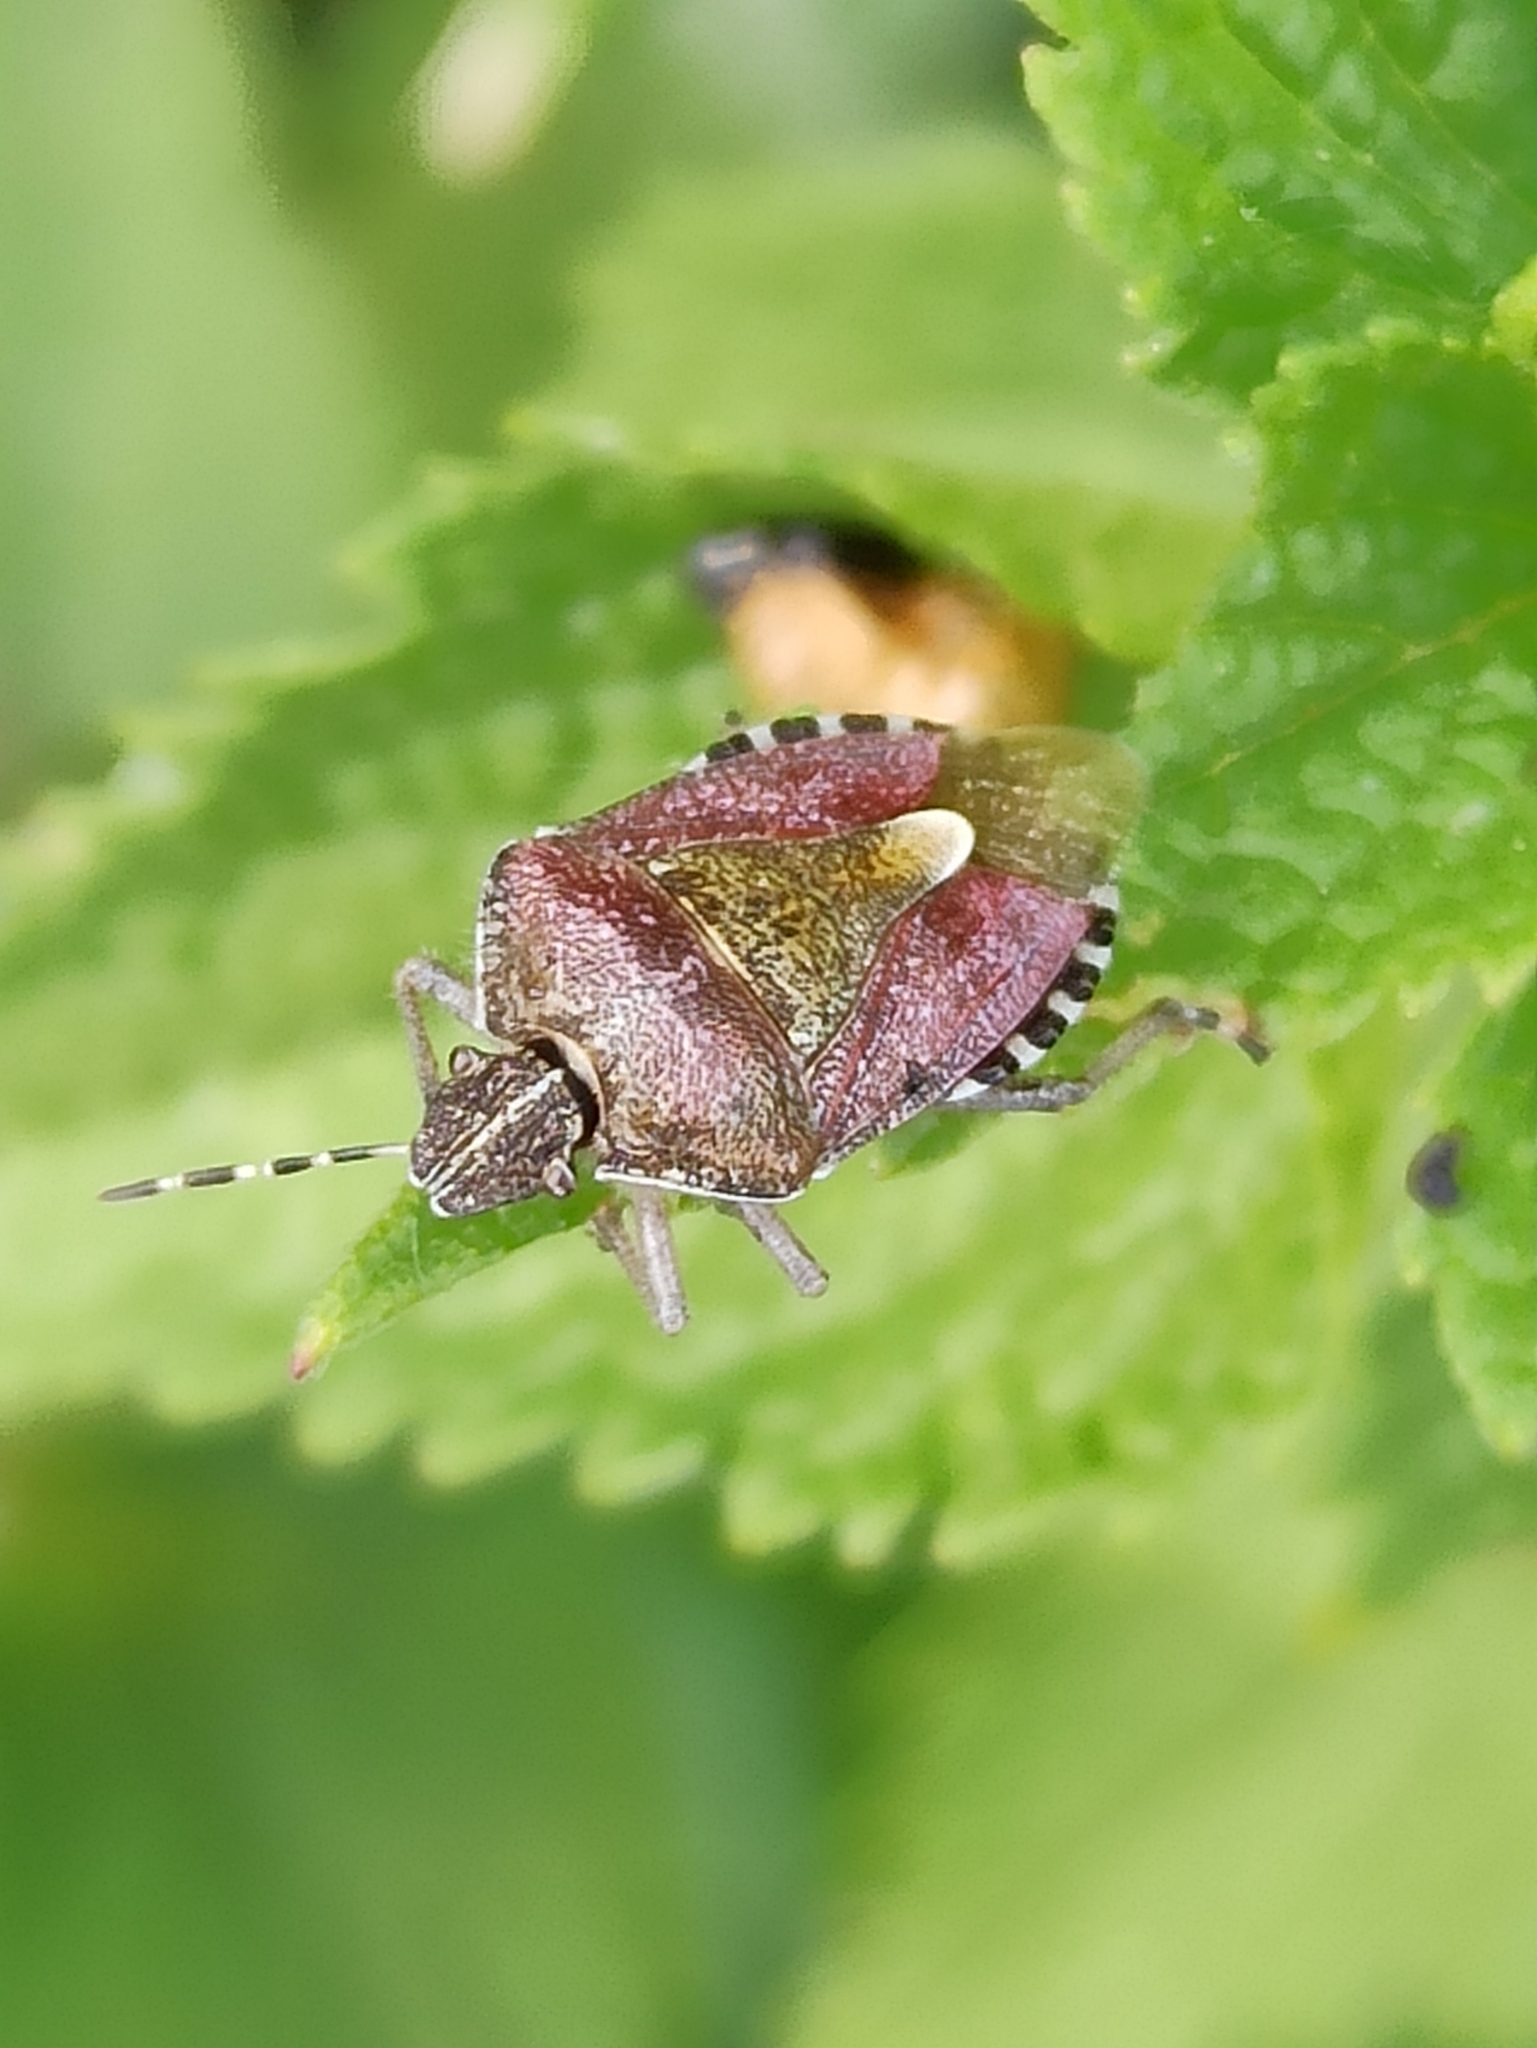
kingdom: Animalia
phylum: Arthropoda
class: Insecta
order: Hemiptera
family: Pentatomidae
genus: Dolycoris
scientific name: Dolycoris baccarum
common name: Sloe bug
